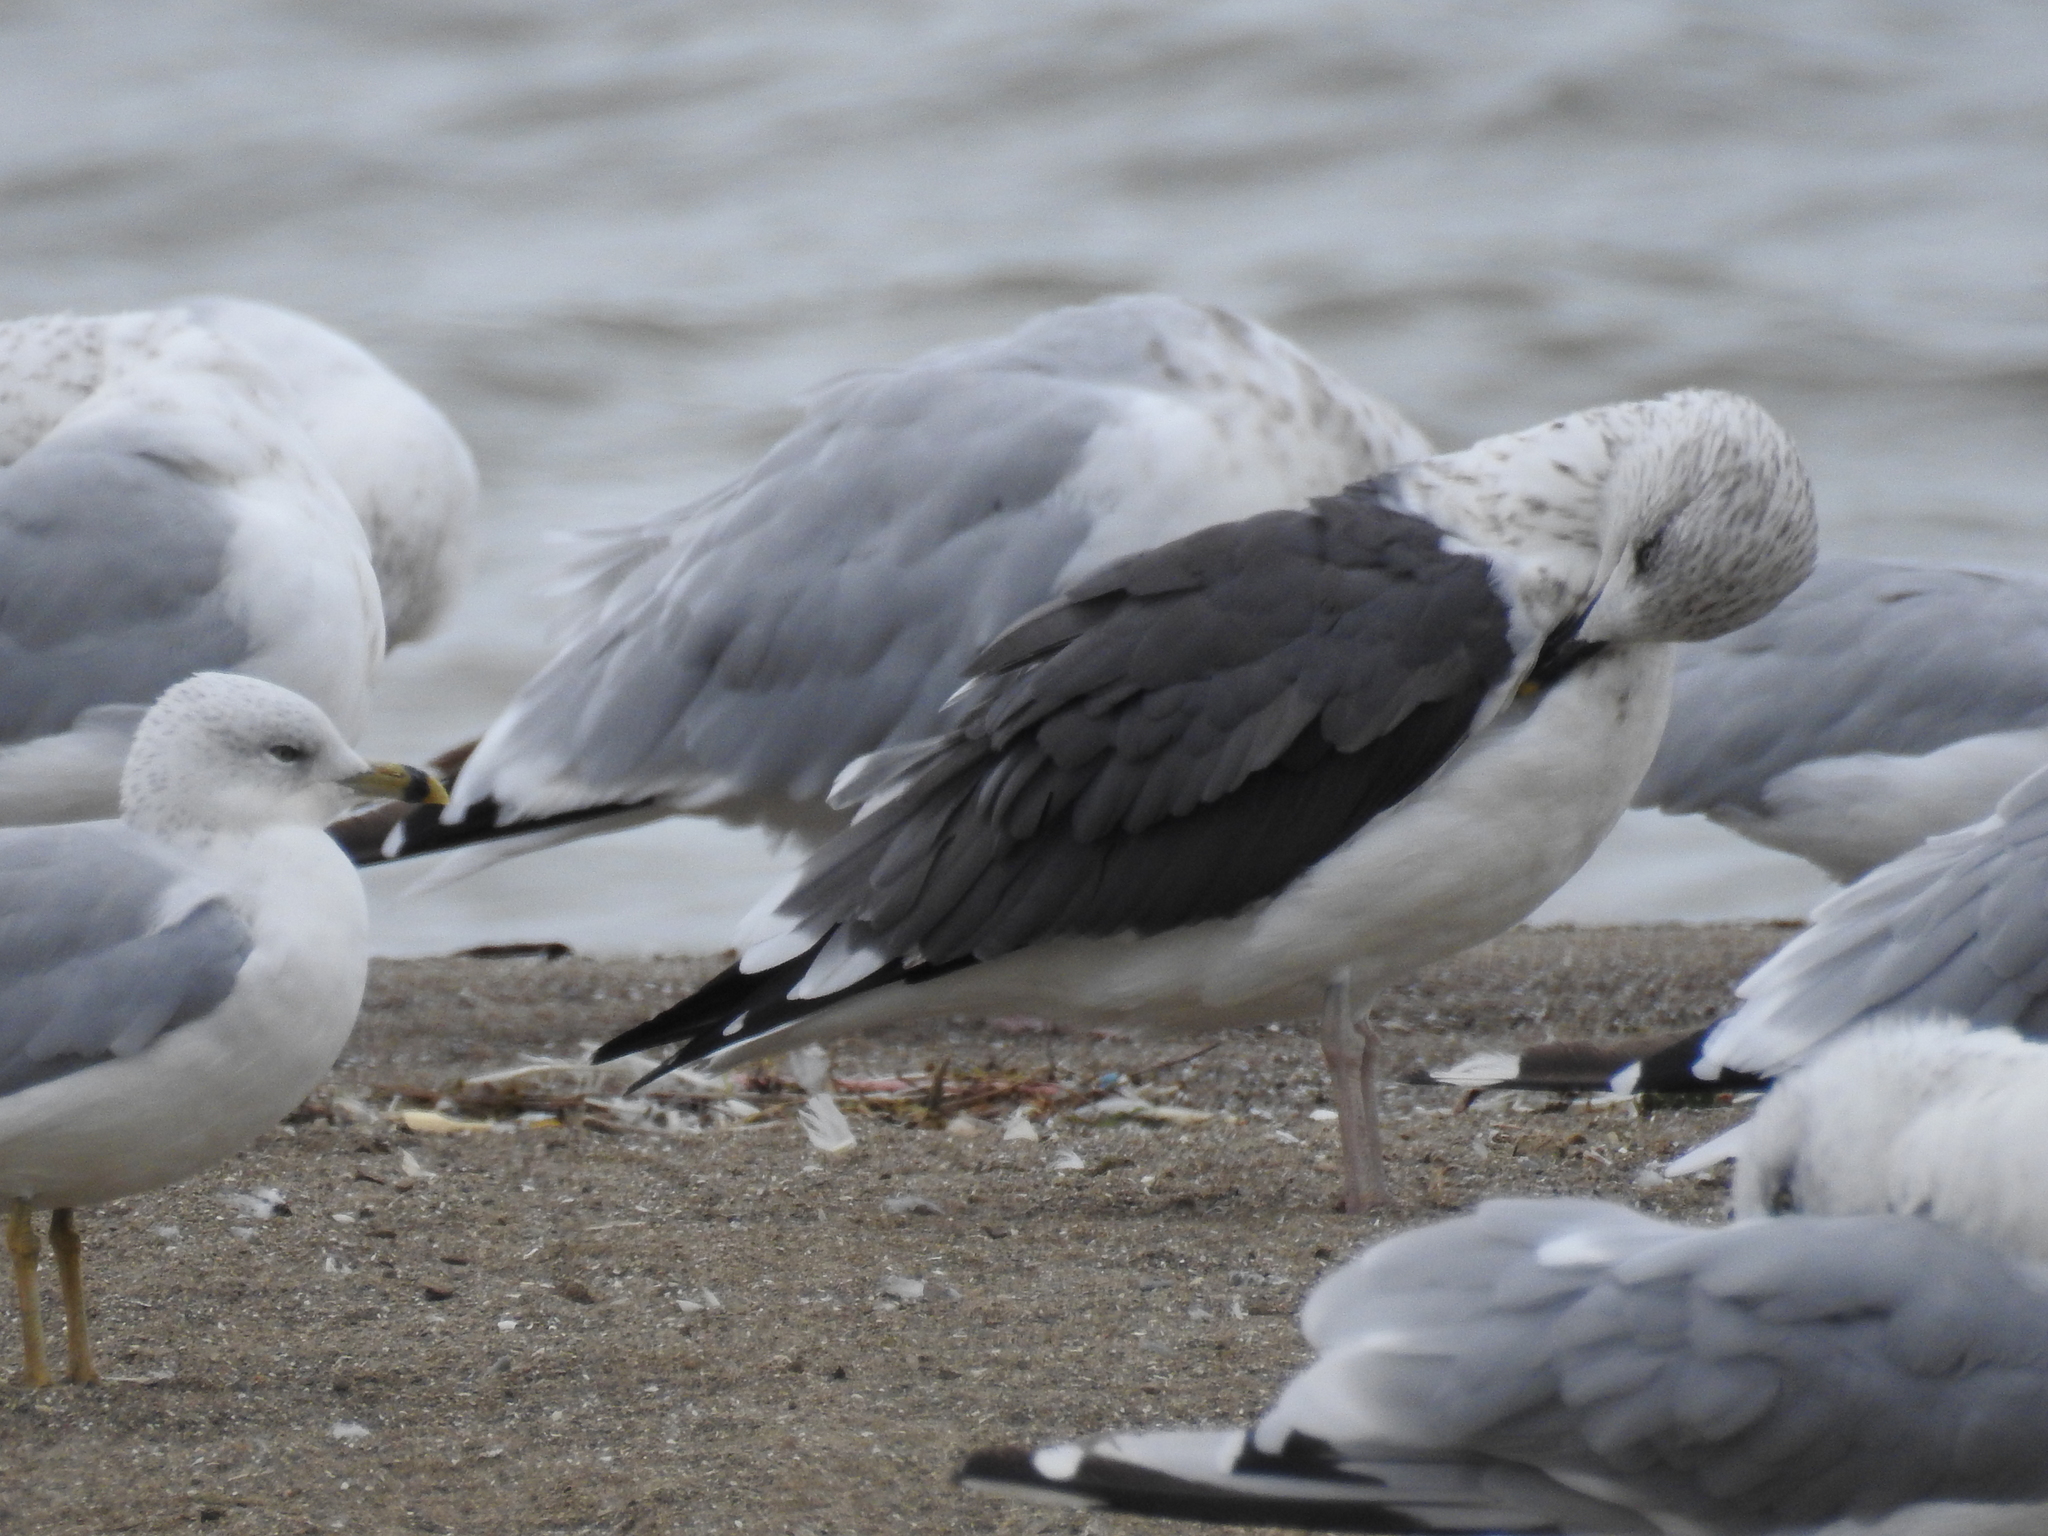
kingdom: Animalia
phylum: Chordata
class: Aves
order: Charadriiformes
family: Laridae
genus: Larus
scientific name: Larus delawarensis
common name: Ring-billed gull
